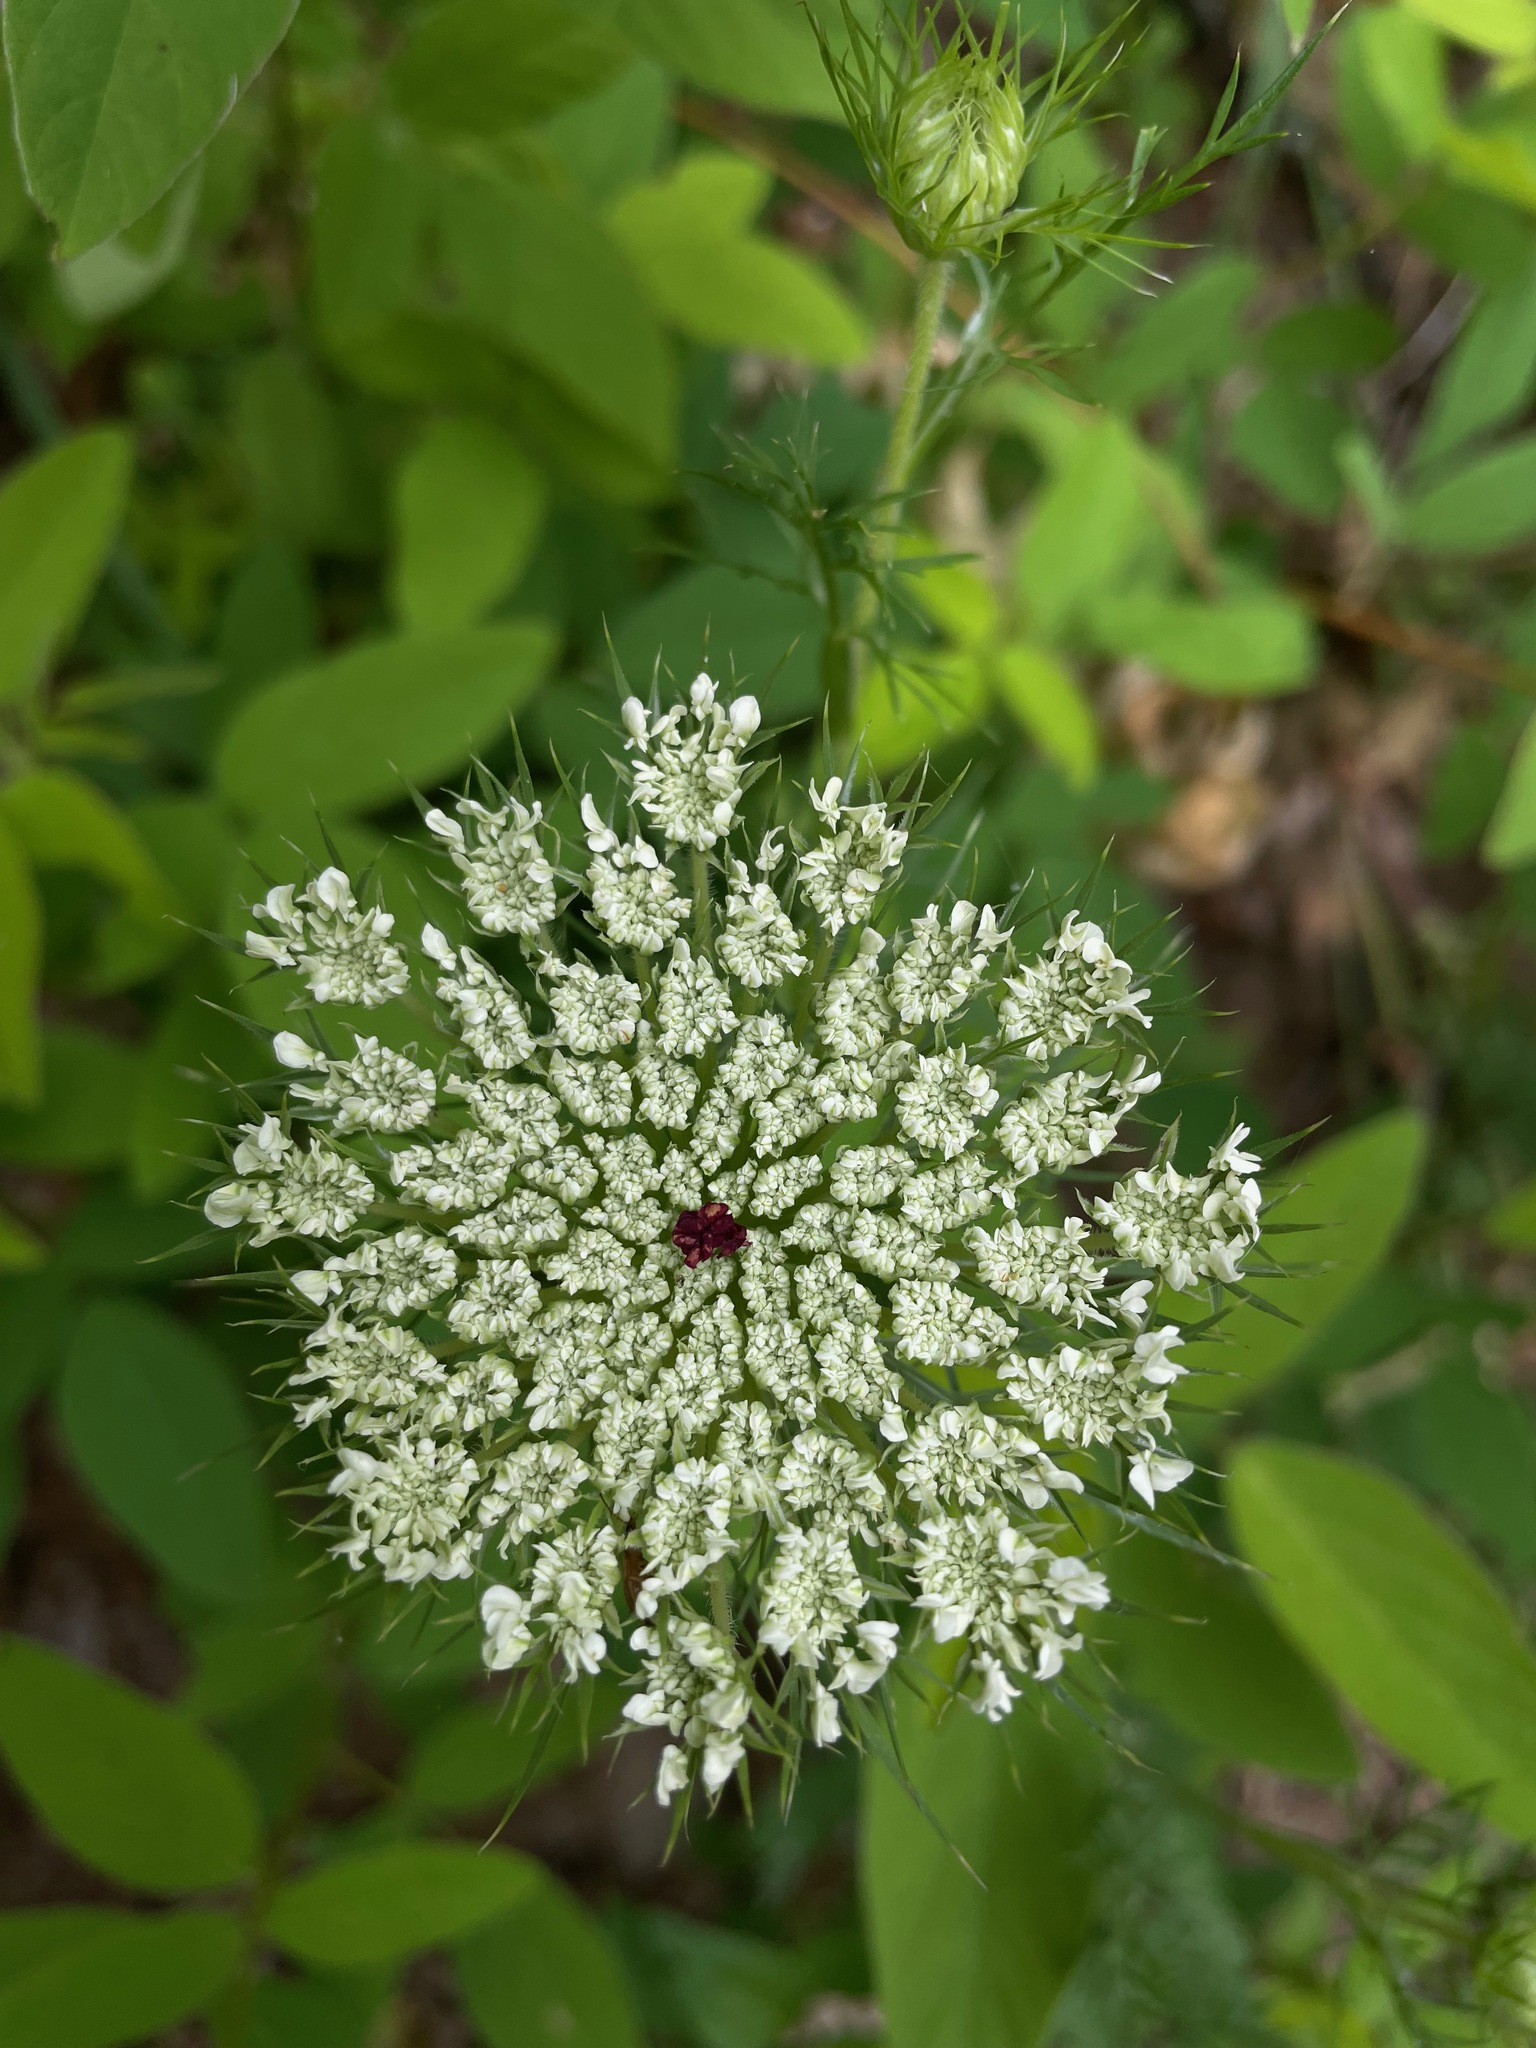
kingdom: Plantae
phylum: Tracheophyta
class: Magnoliopsida
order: Apiales
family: Apiaceae
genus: Daucus
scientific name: Daucus carota
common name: Wild carrot
